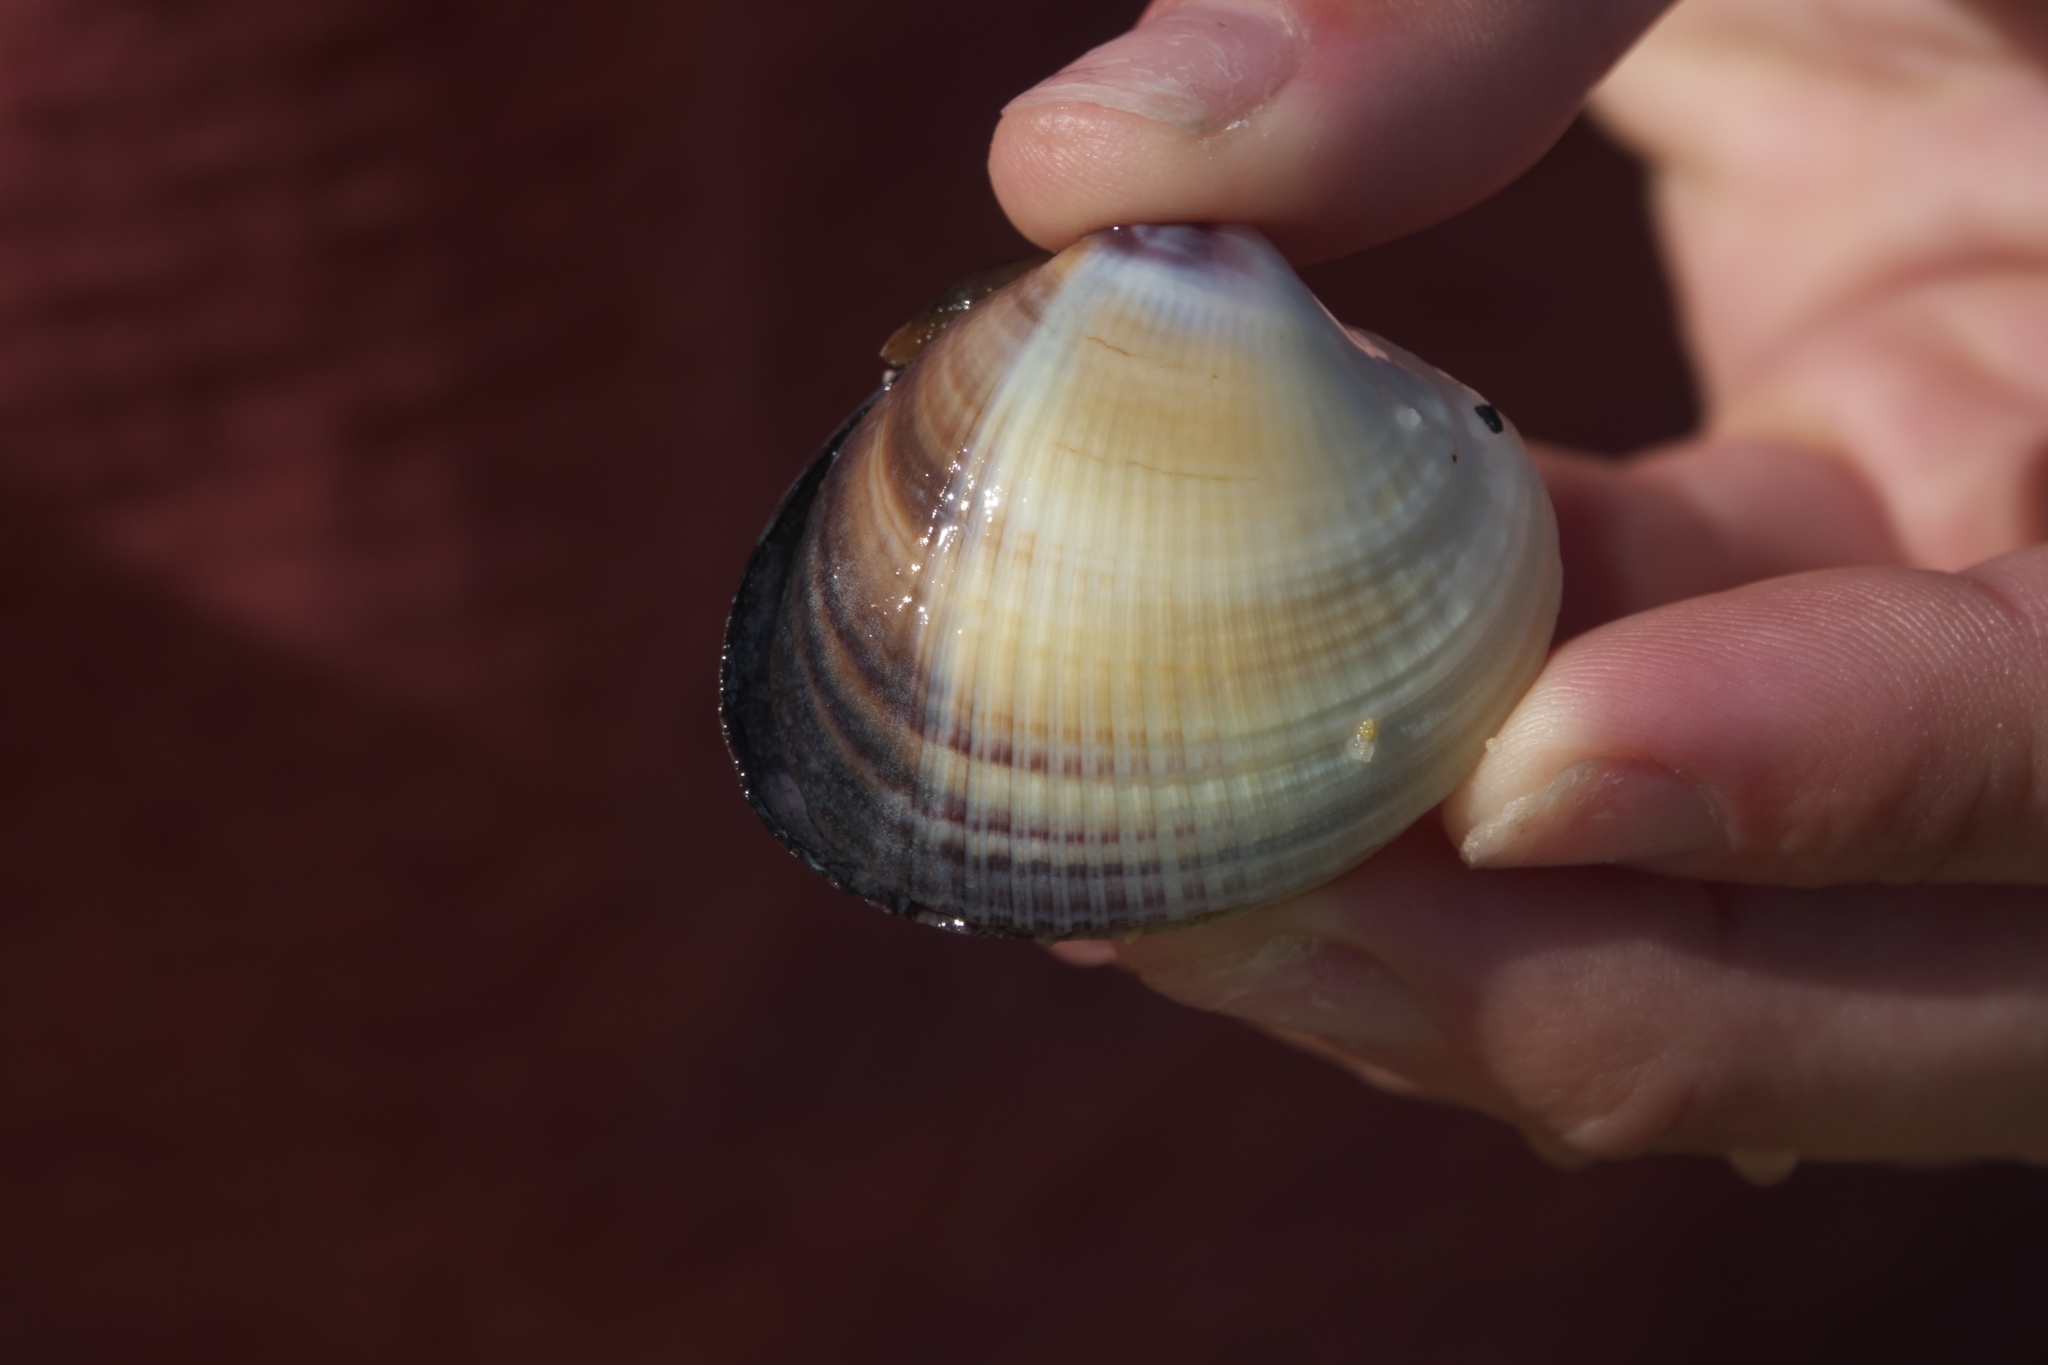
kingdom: Animalia
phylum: Mollusca
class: Bivalvia
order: Venerida
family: Veneridae
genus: Austrovenus
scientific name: Austrovenus stutchburyi
